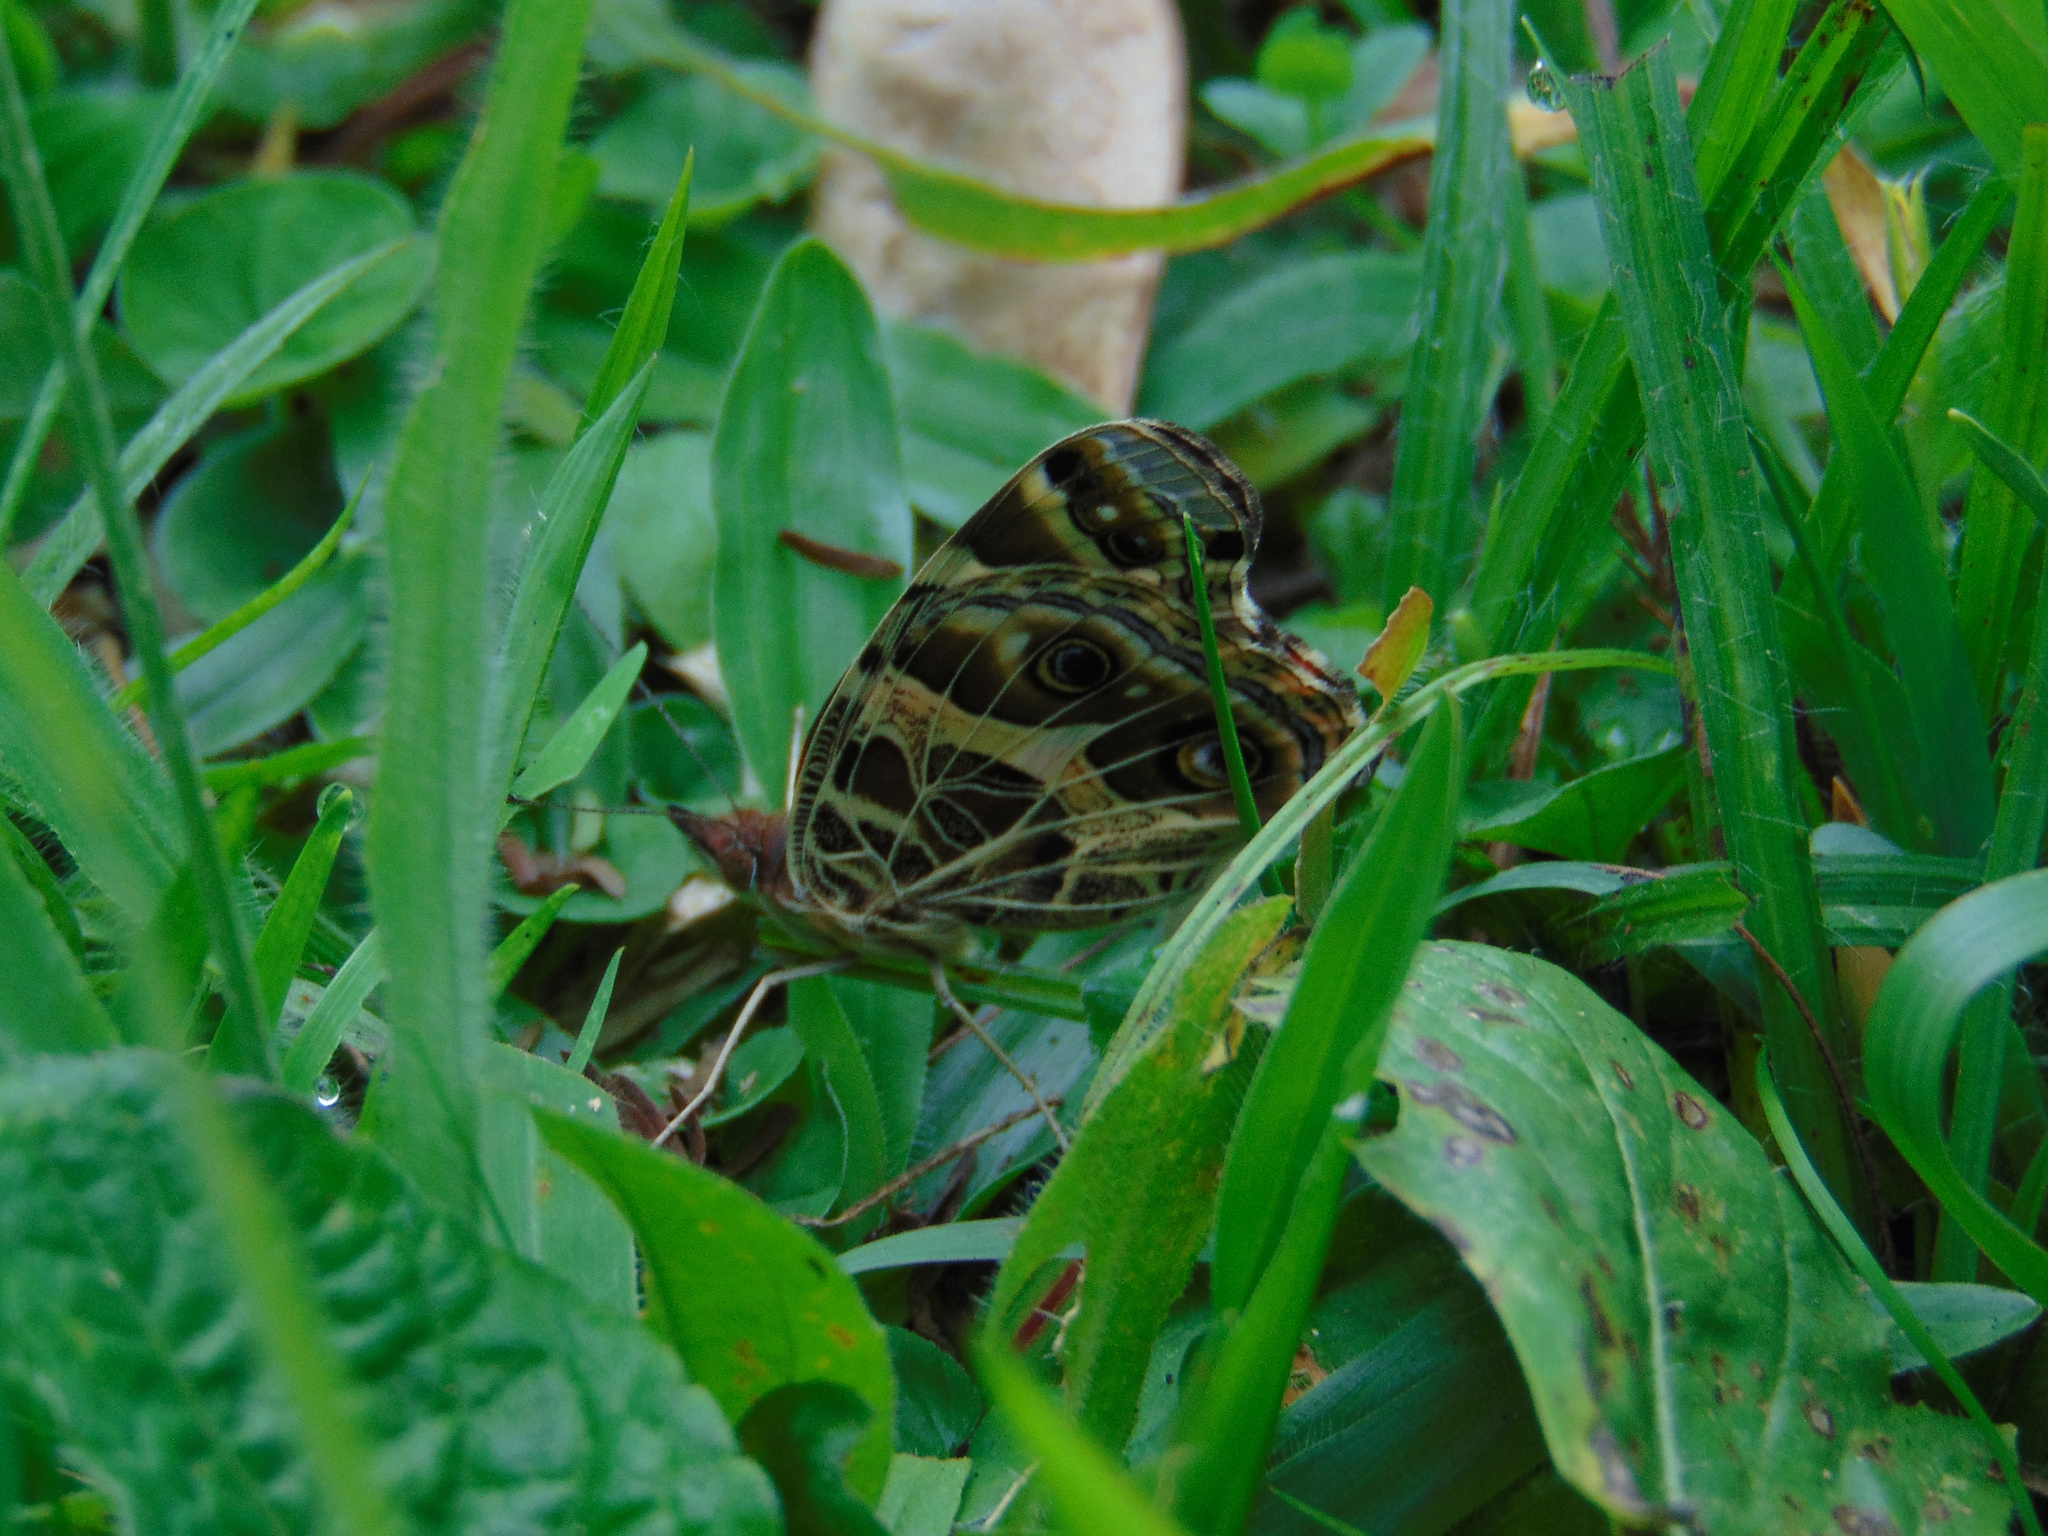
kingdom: Animalia
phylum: Arthropoda
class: Insecta
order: Lepidoptera
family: Nymphalidae
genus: Vanessa
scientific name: Vanessa braziliensis
